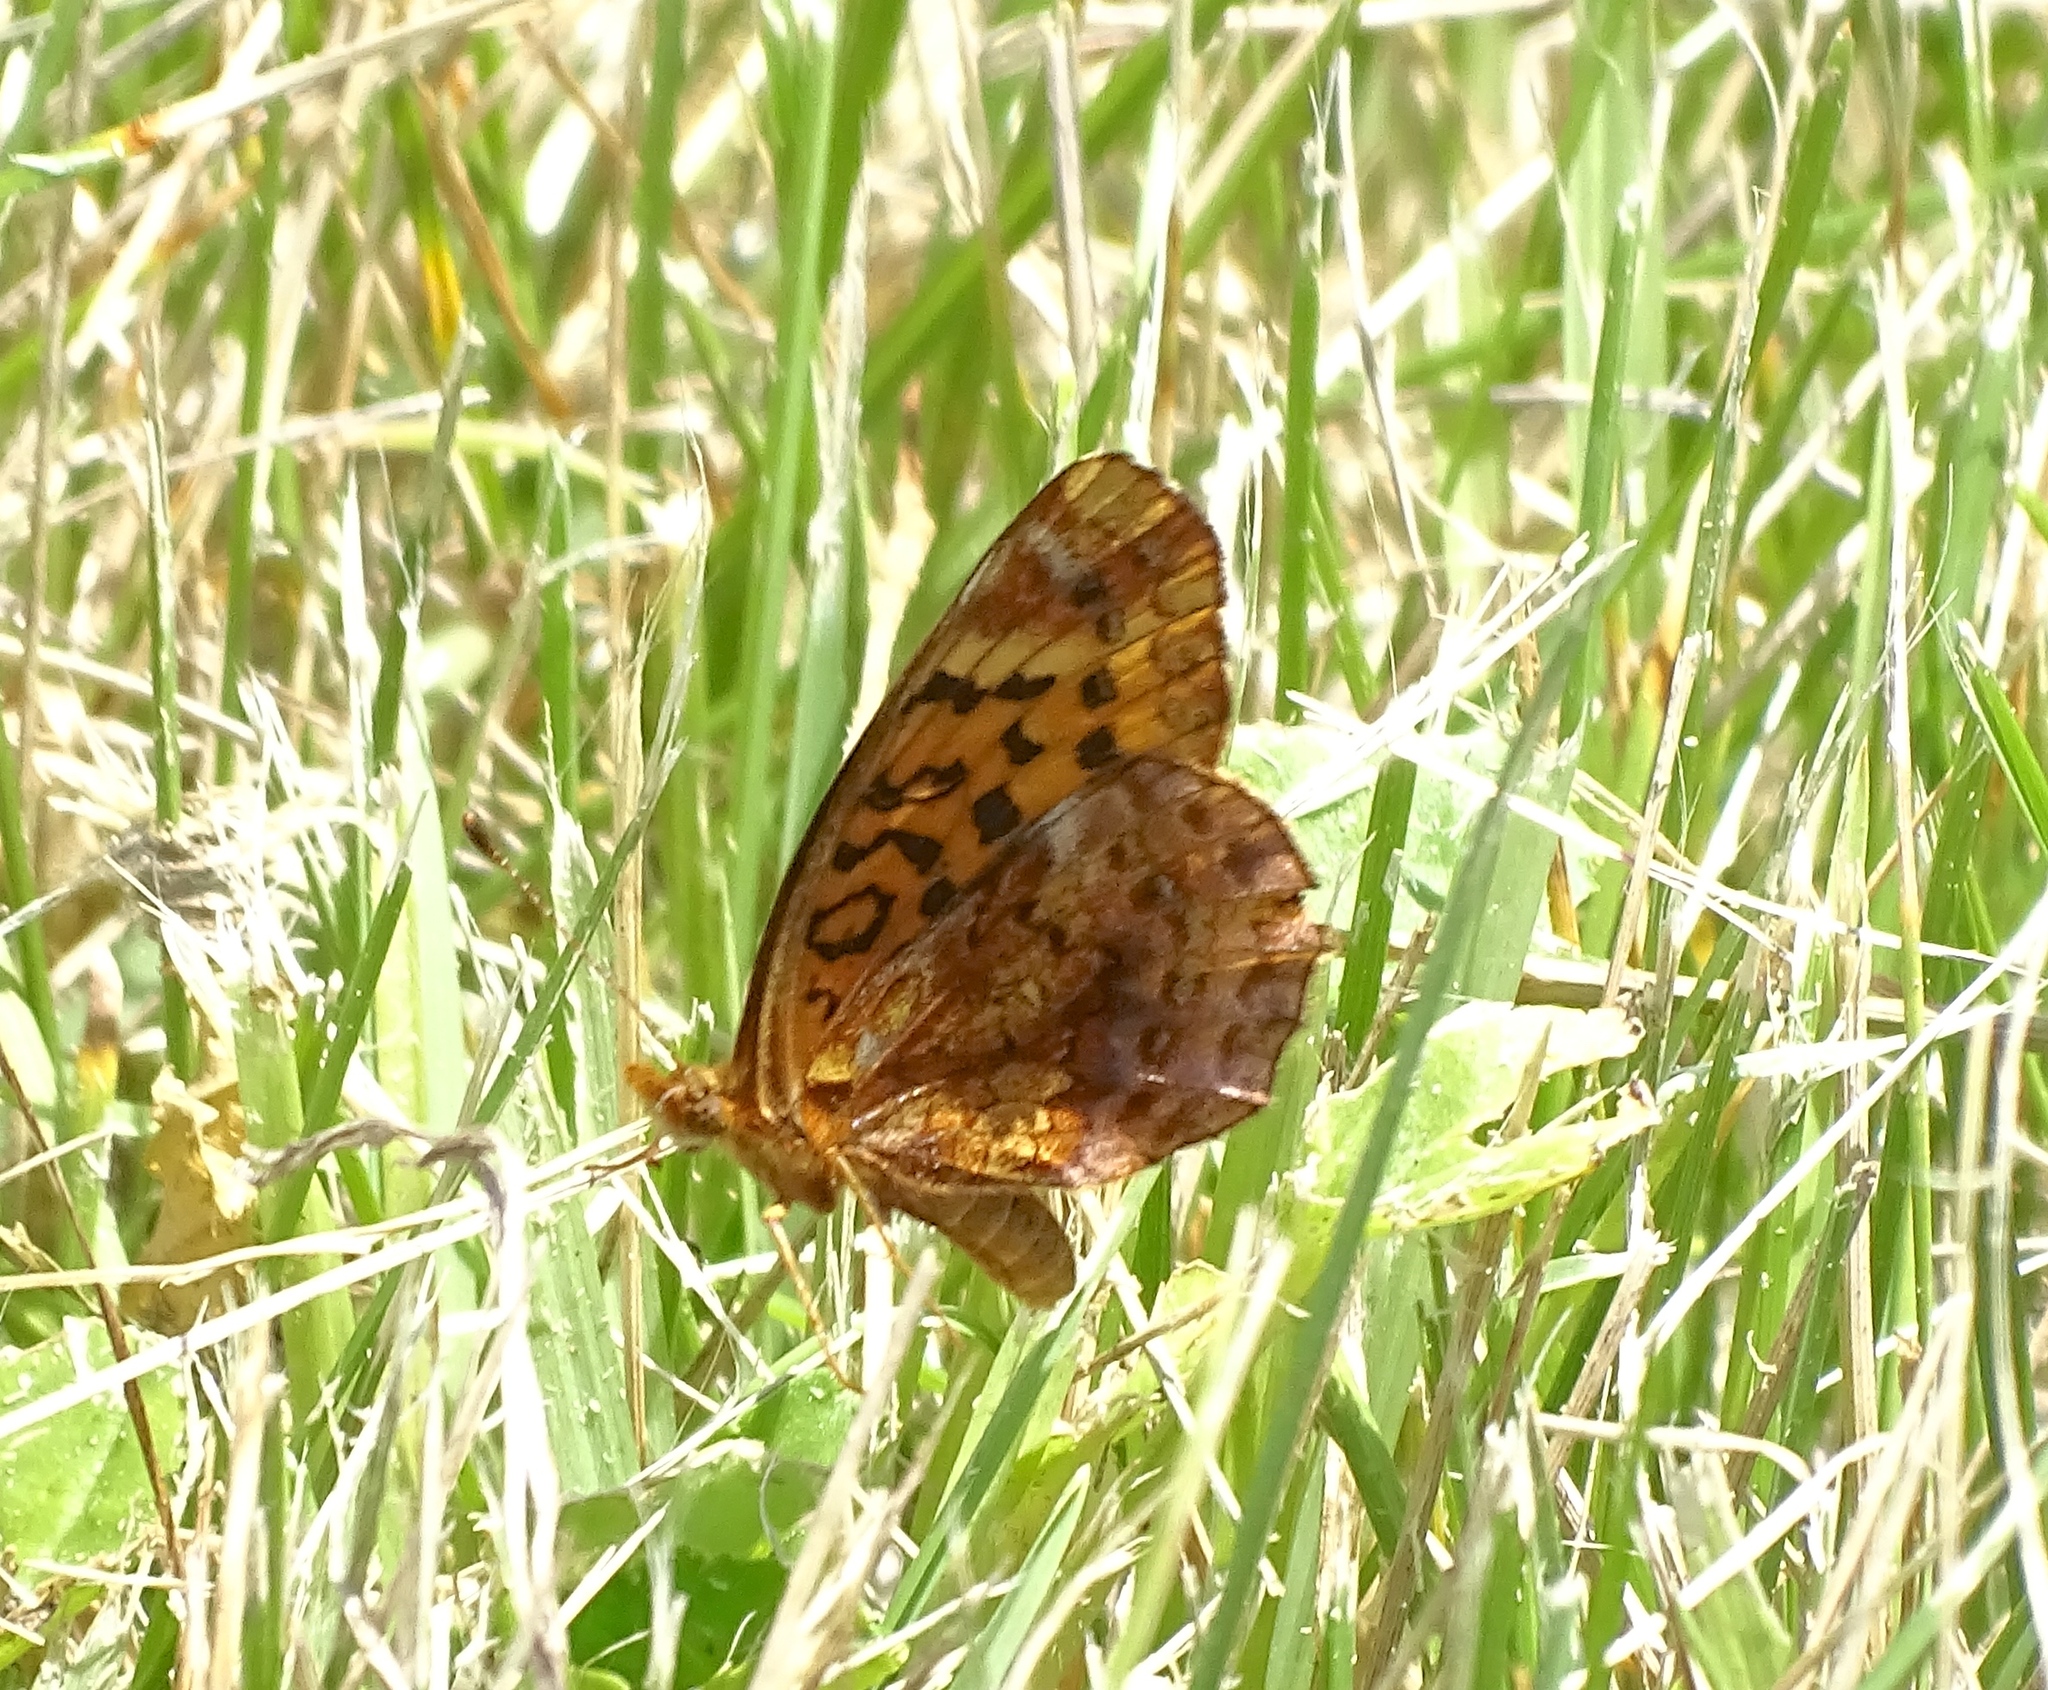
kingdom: Animalia
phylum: Arthropoda
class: Insecta
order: Lepidoptera
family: Nymphalidae
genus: Clossiana
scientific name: Clossiana toddi
